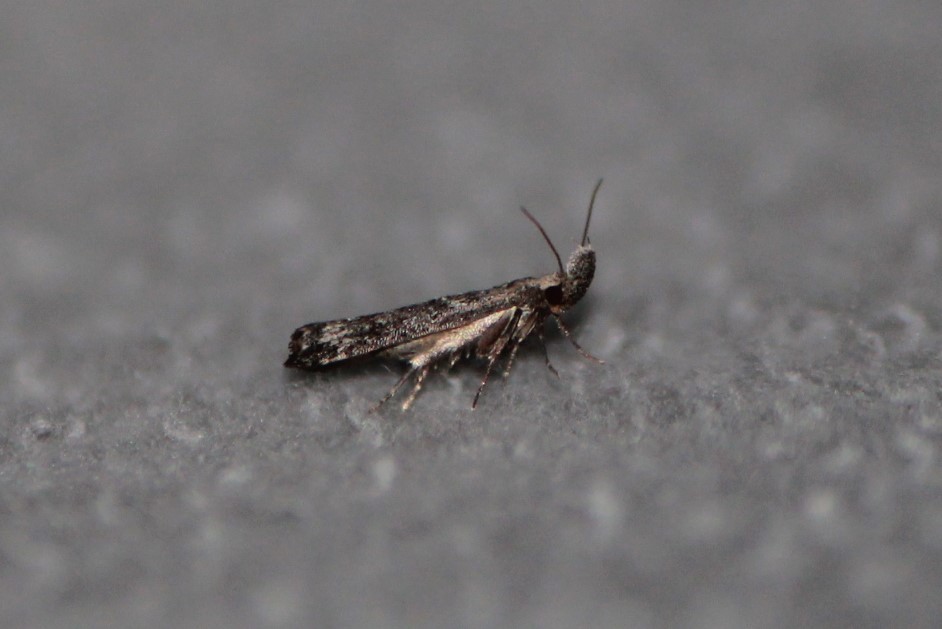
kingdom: Animalia
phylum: Arthropoda
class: Insecta
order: Lepidoptera
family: Gelechiidae
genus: Dichomeris
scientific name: Dichomeris inversella
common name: Inverse dichomeris moth
